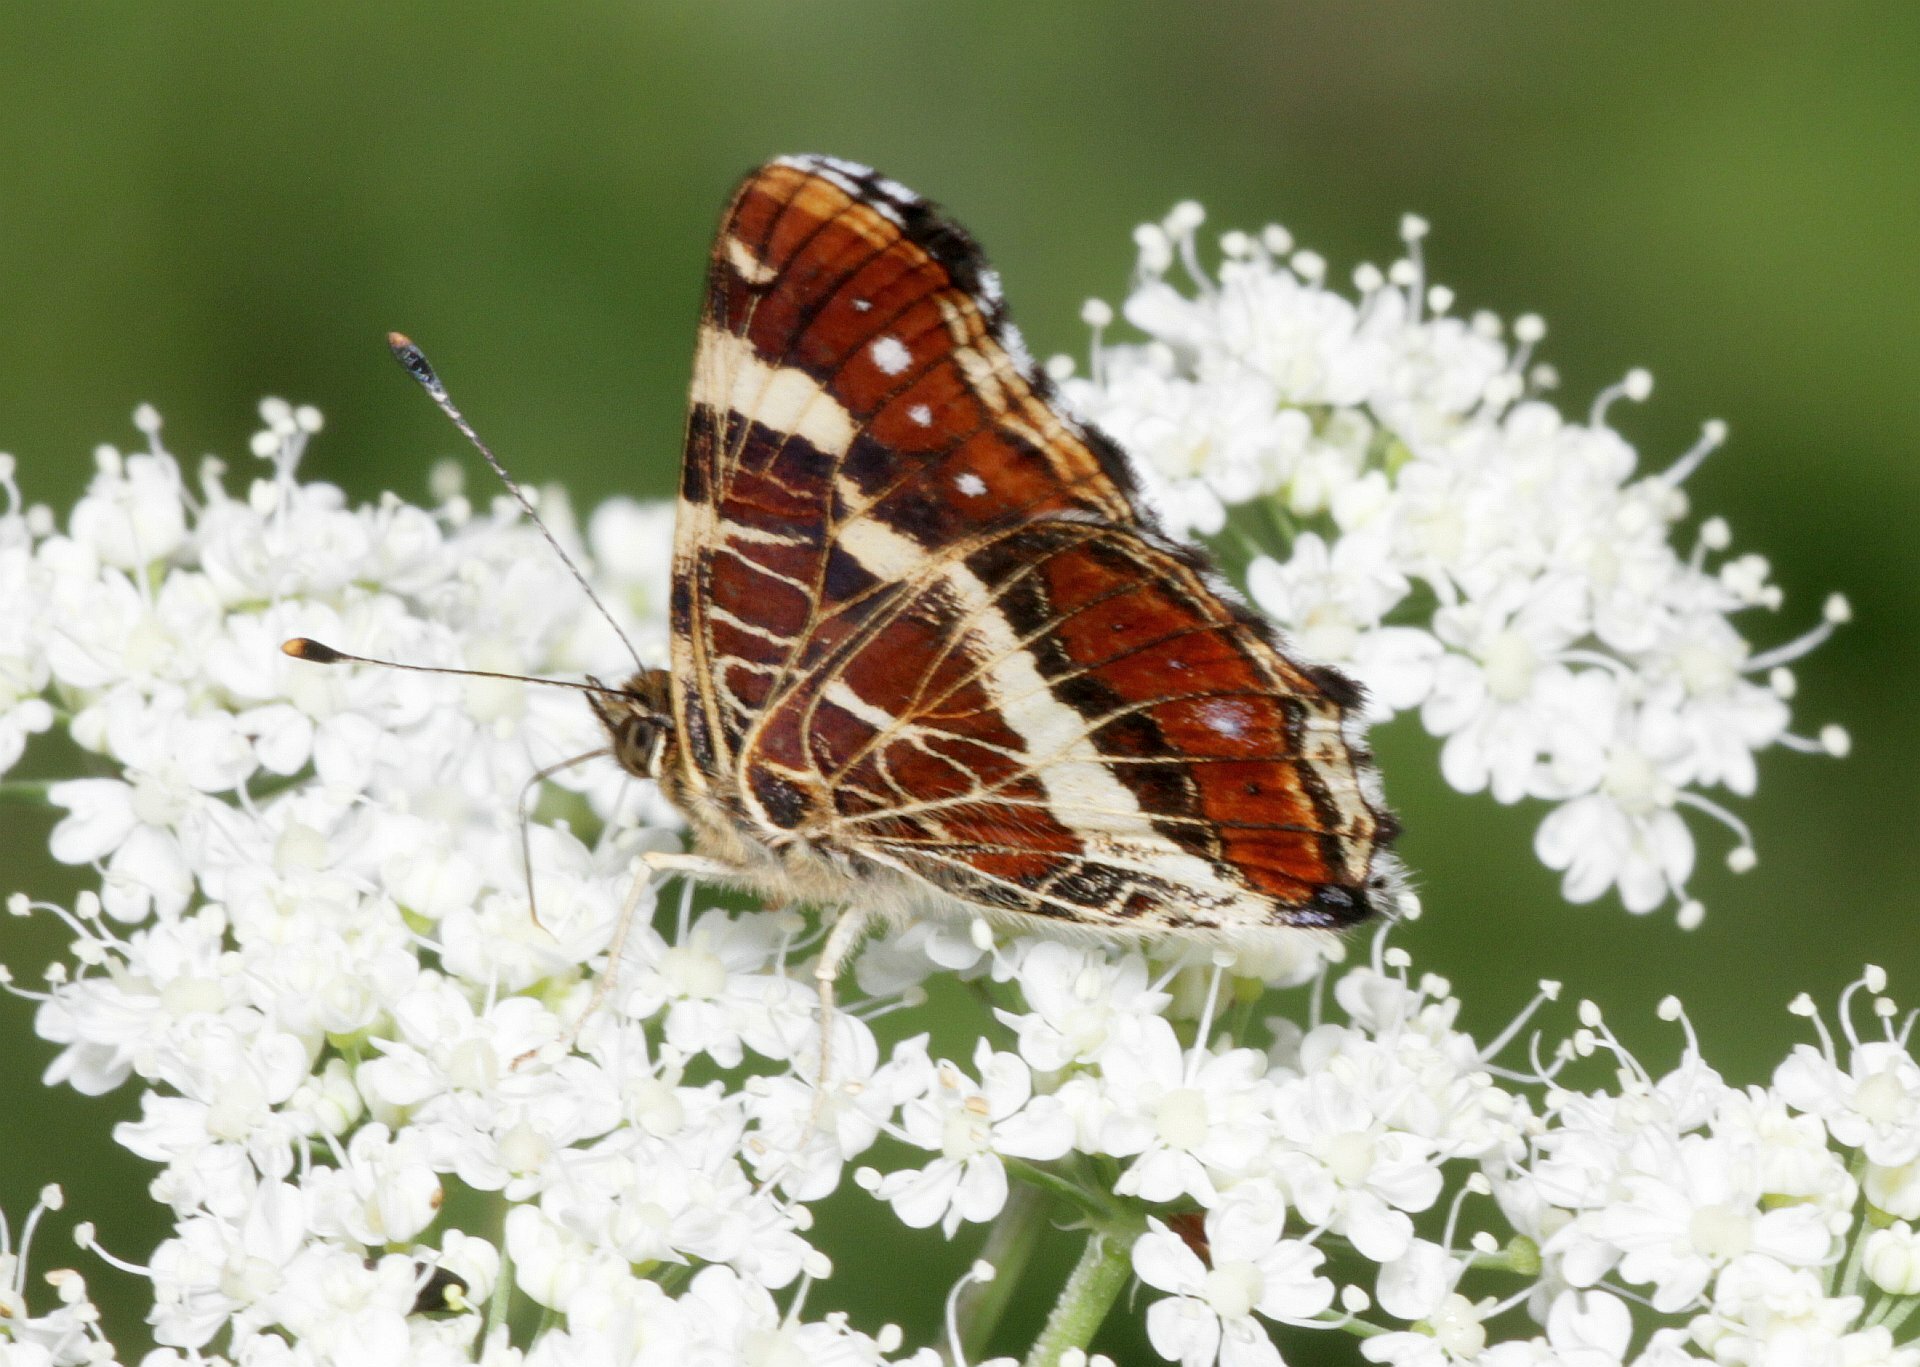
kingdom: Animalia
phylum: Arthropoda
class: Insecta
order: Lepidoptera
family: Nymphalidae
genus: Araschnia
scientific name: Araschnia levana
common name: Map butterfly
